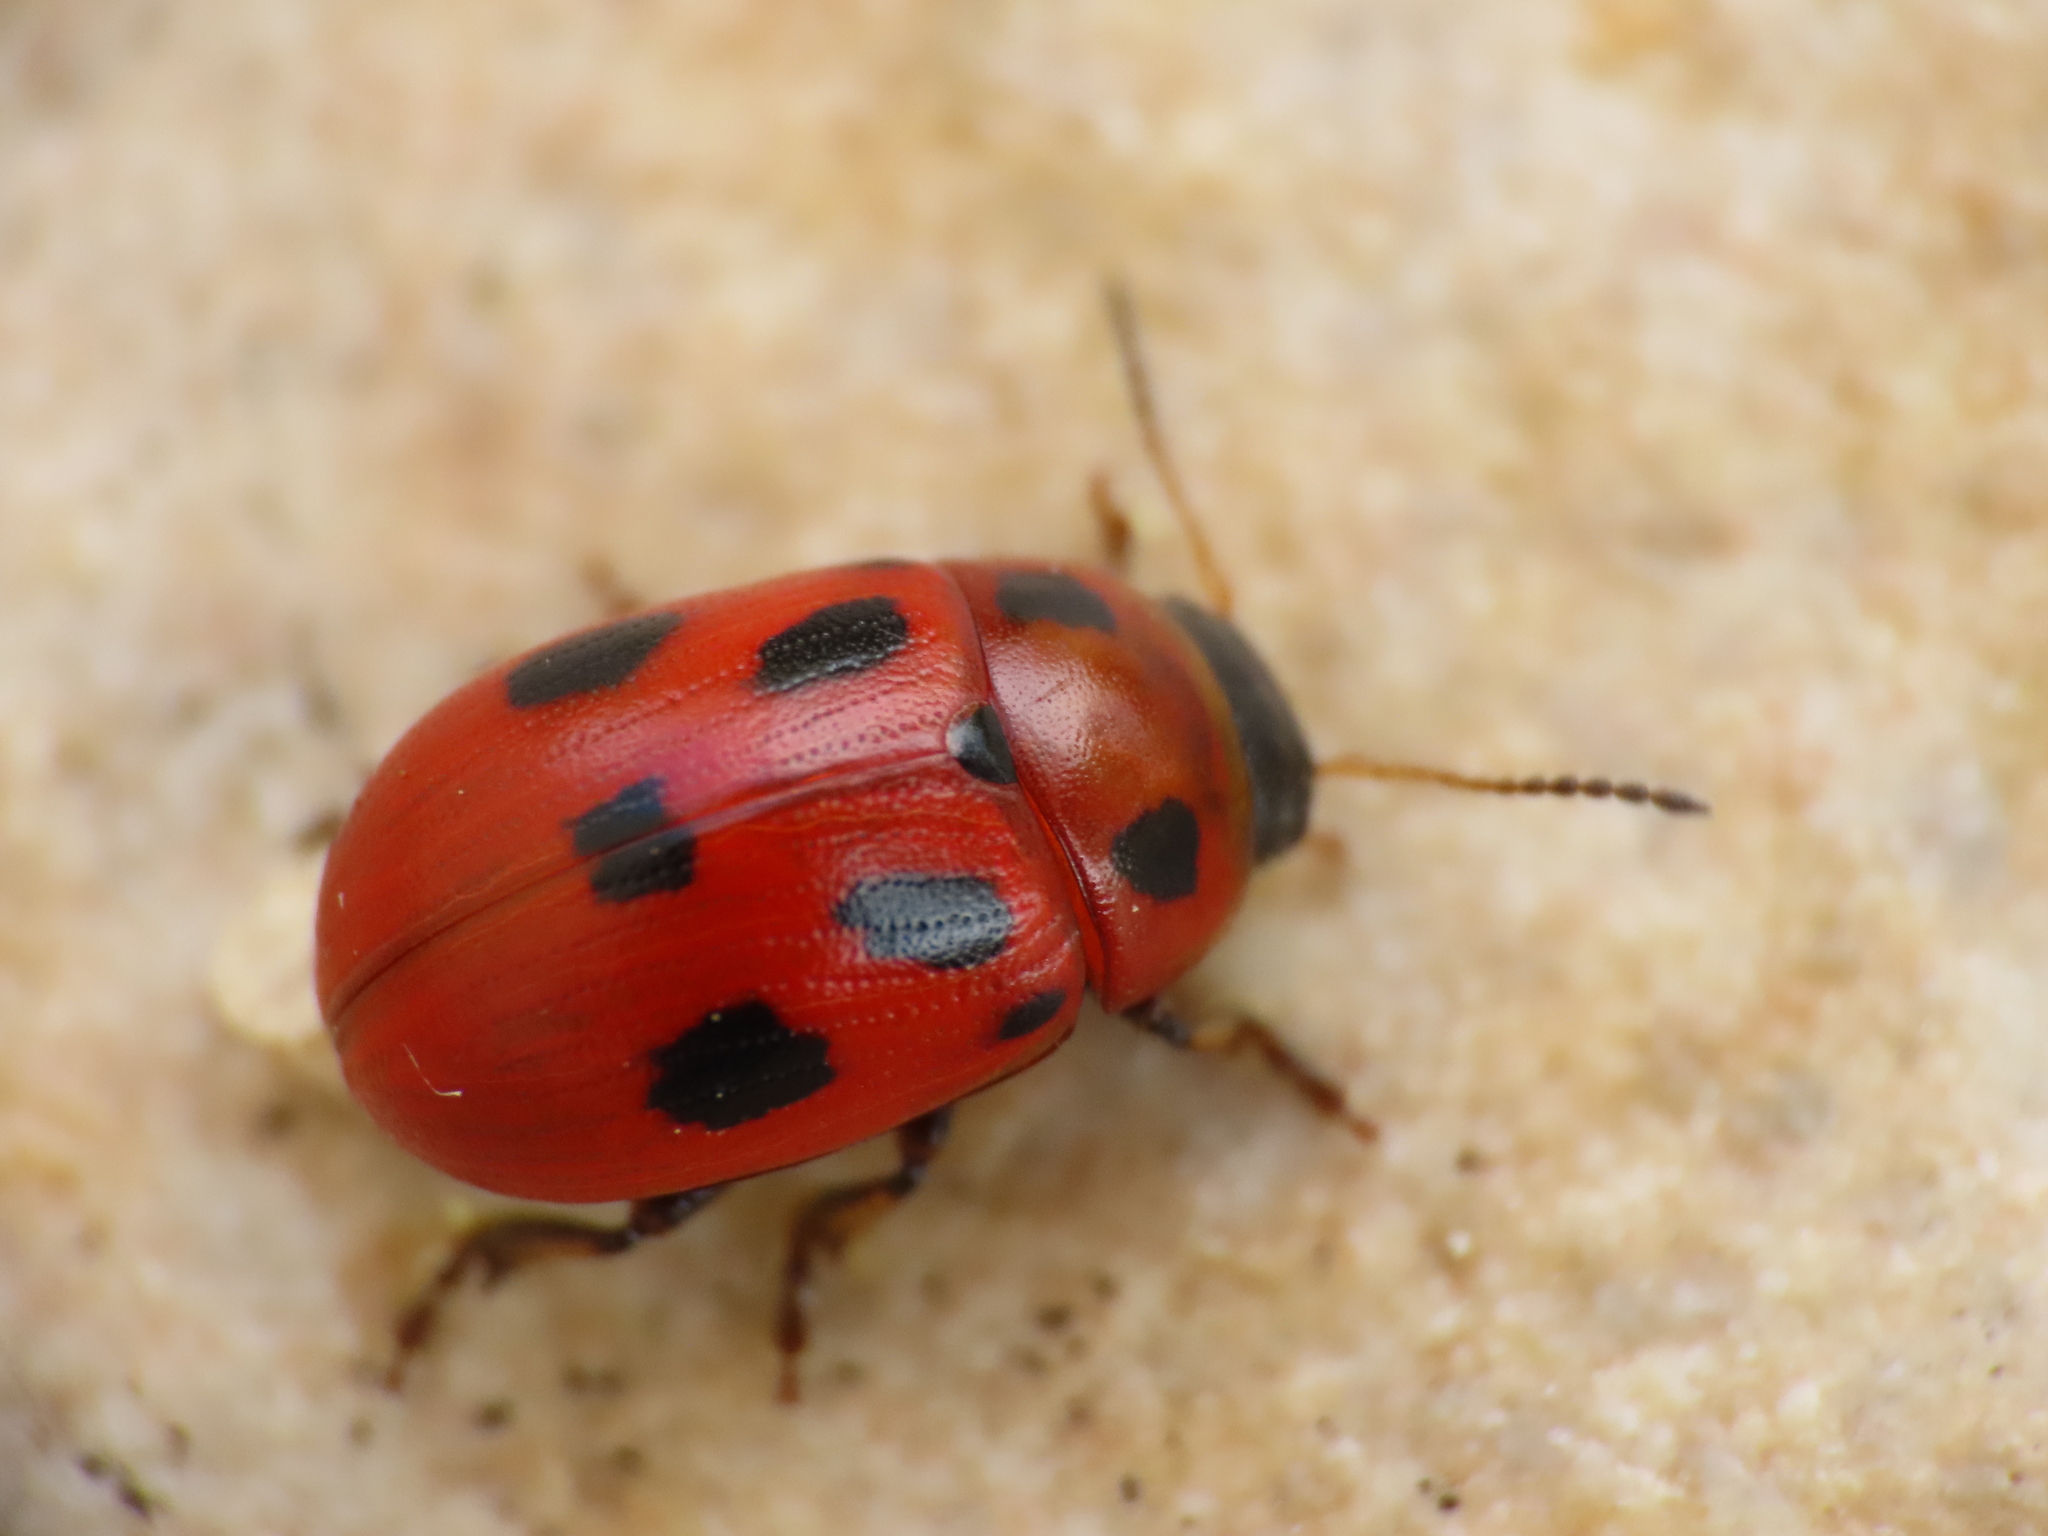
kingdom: Animalia
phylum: Arthropoda
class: Insecta
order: Coleoptera
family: Chrysomelidae
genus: Gonioctena
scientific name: Gonioctena fornicata
